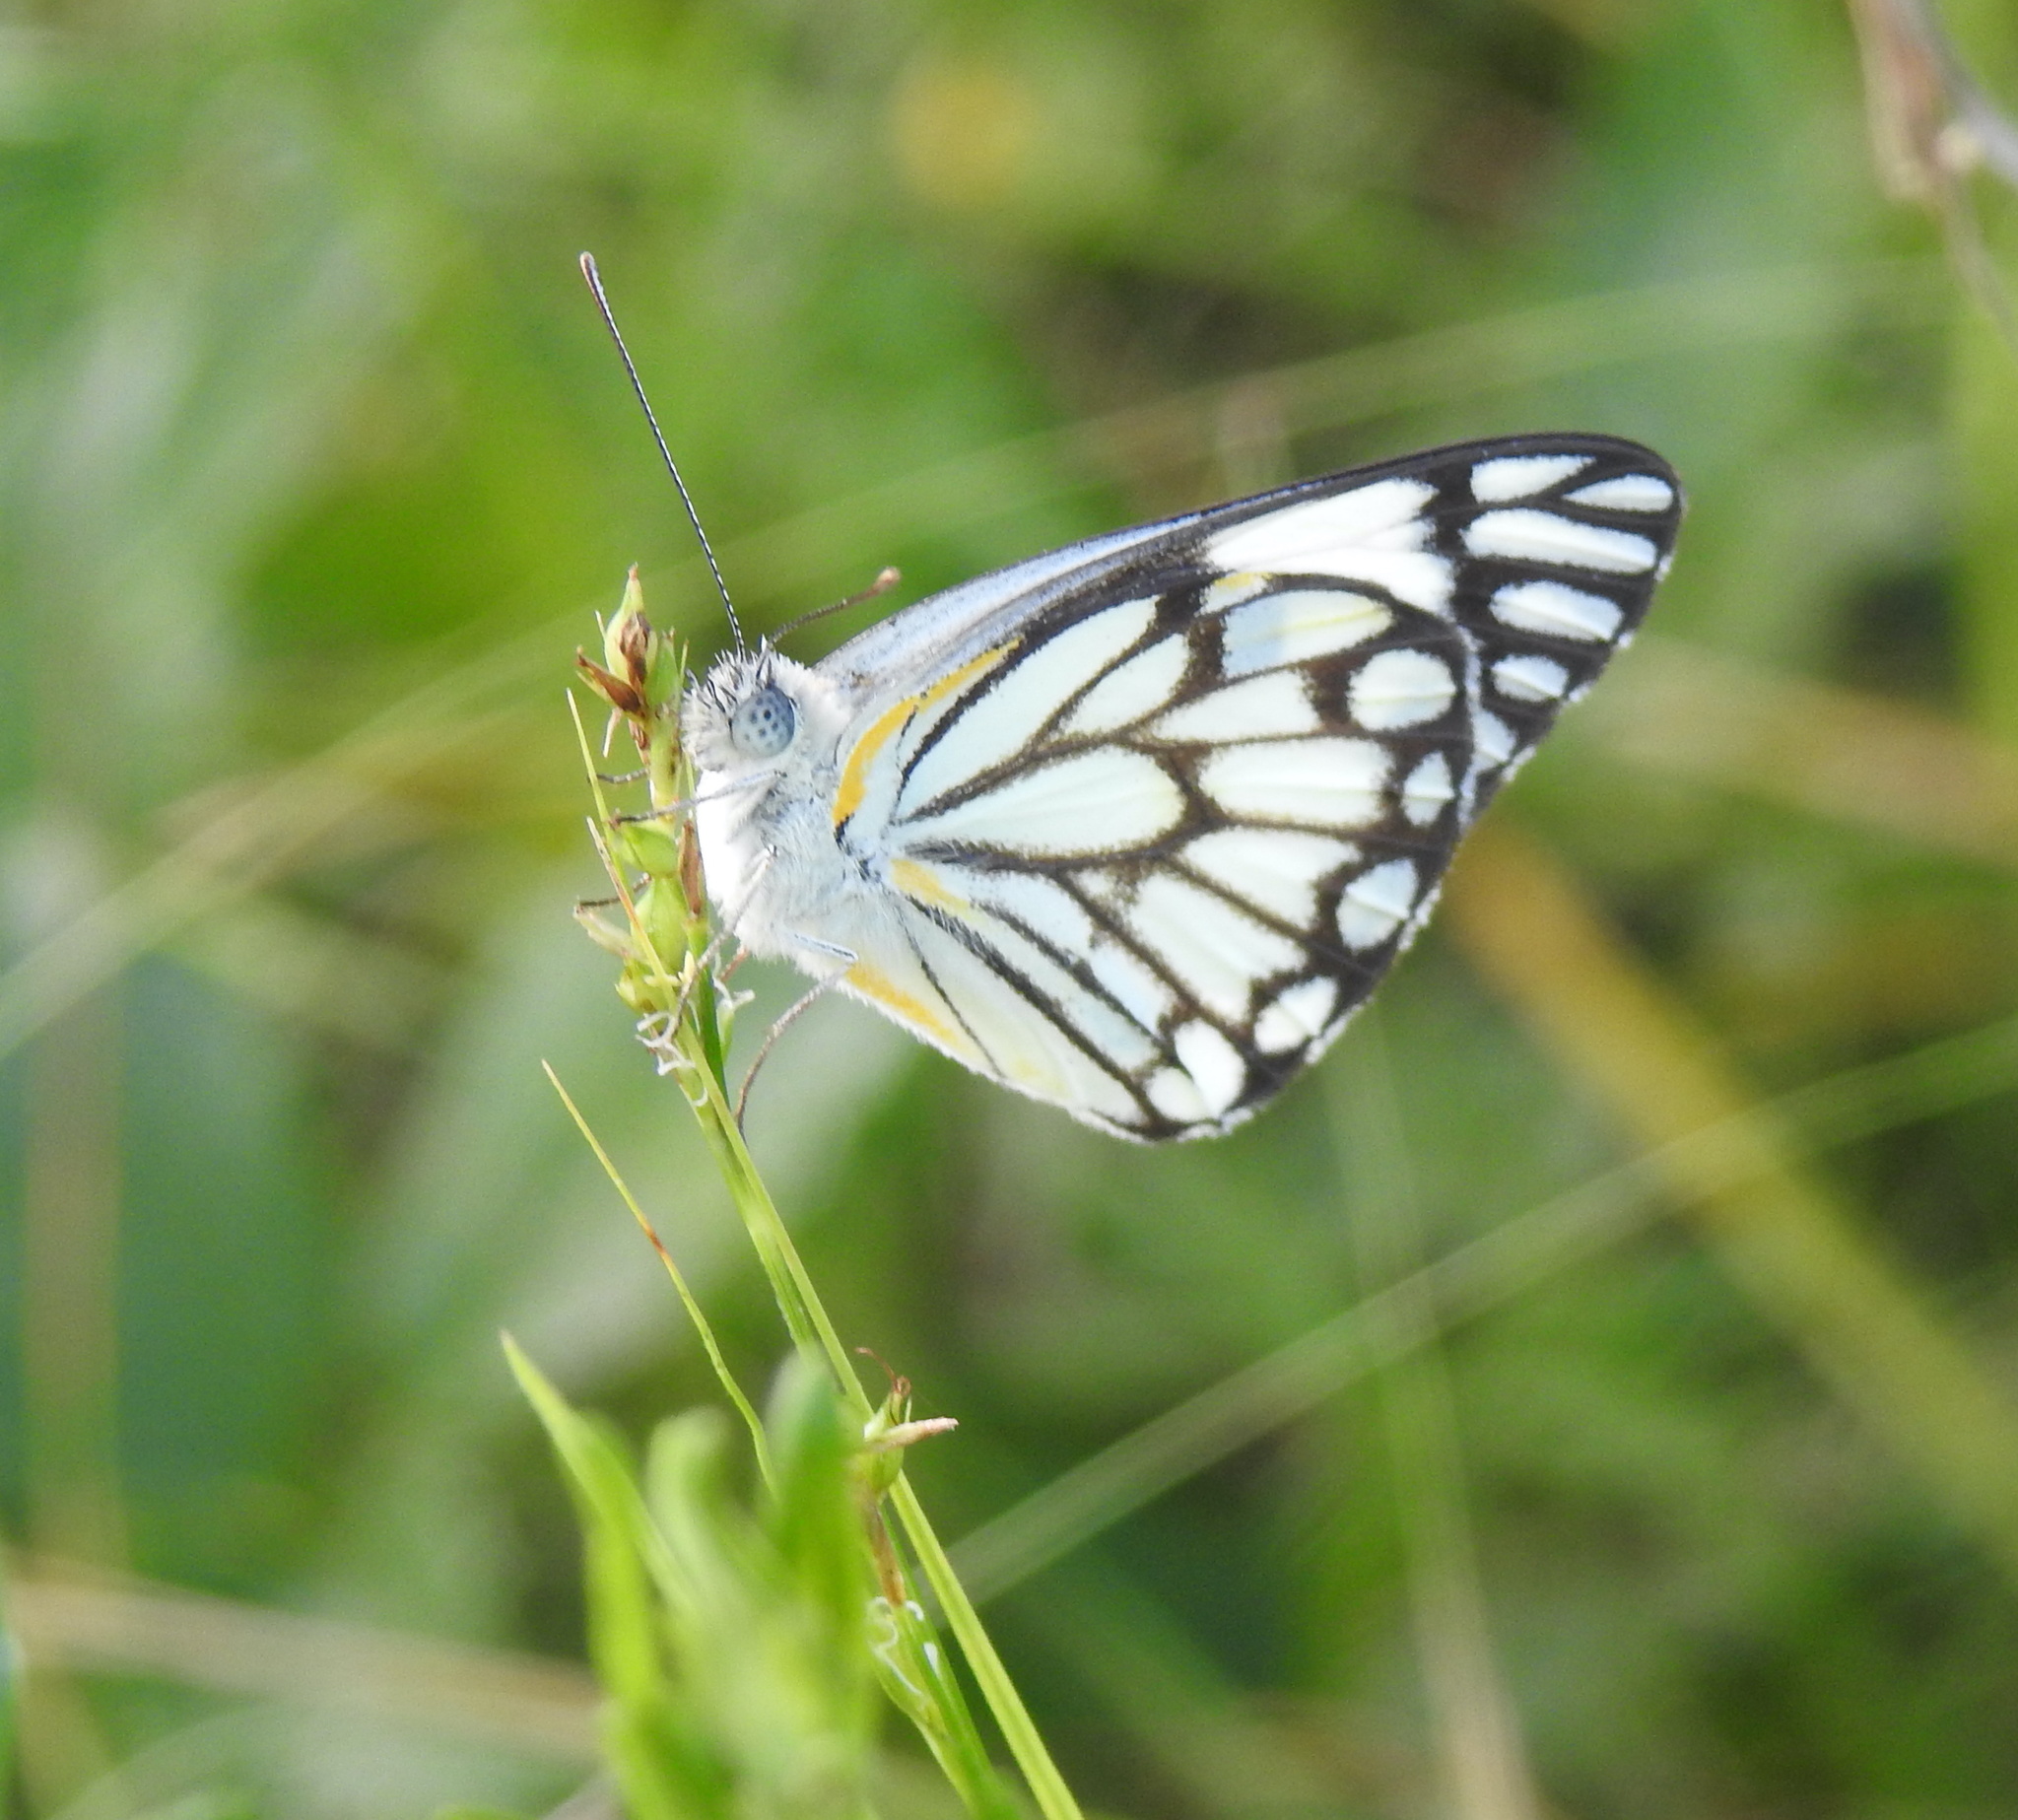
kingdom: Animalia
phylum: Arthropoda
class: Insecta
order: Lepidoptera
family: Pieridae
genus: Belenois
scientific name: Belenois aurota
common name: Brown-veined white
